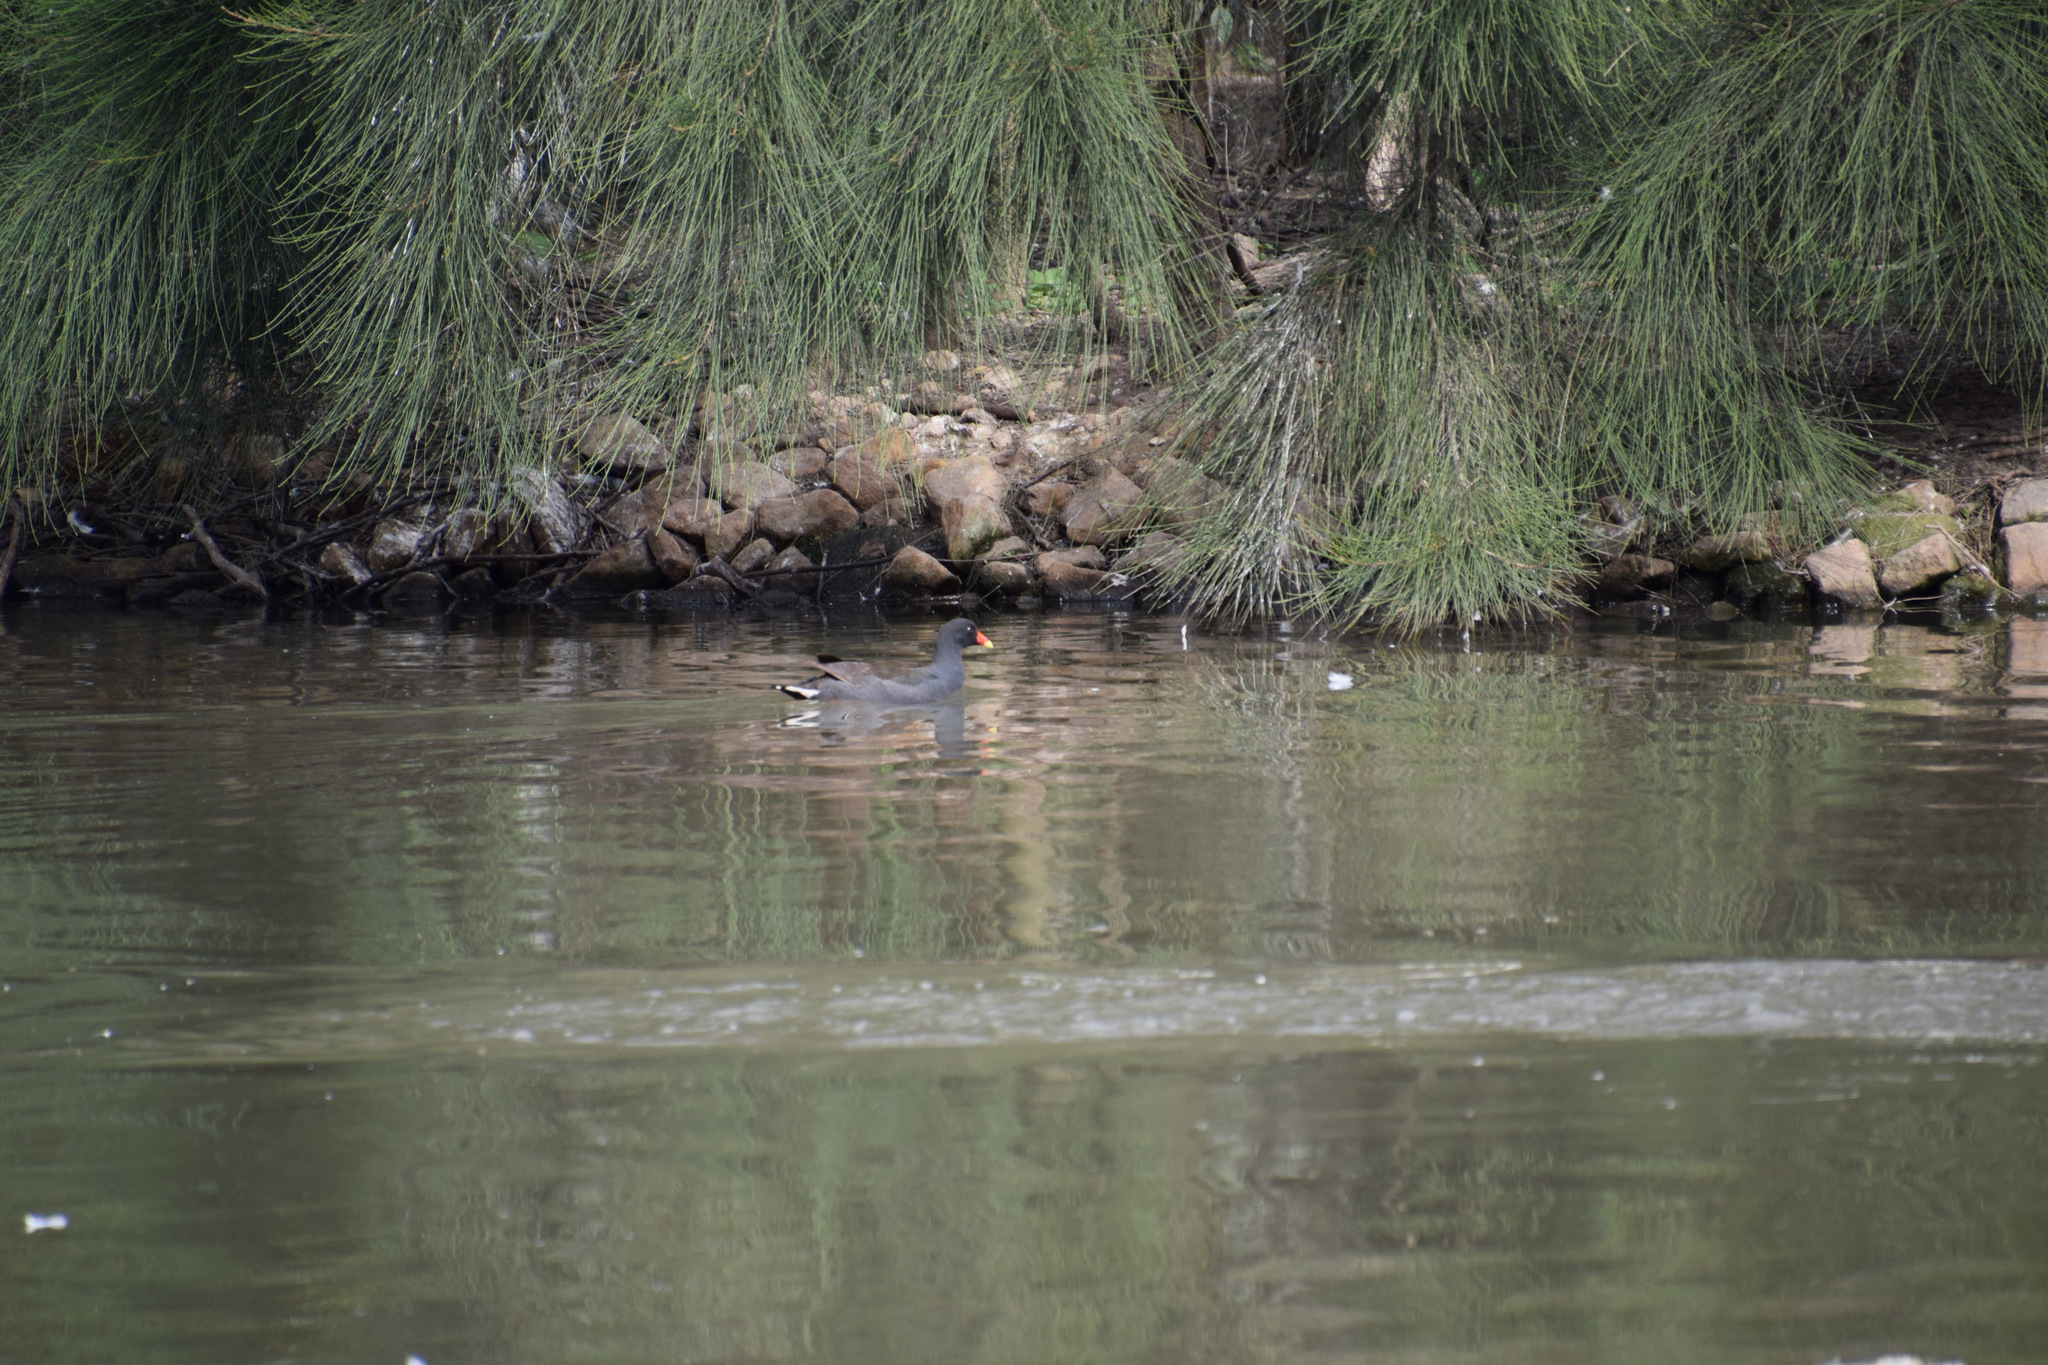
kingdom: Animalia
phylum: Chordata
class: Aves
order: Gruiformes
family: Rallidae
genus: Gallinula
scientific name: Gallinula tenebrosa
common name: Dusky moorhen
